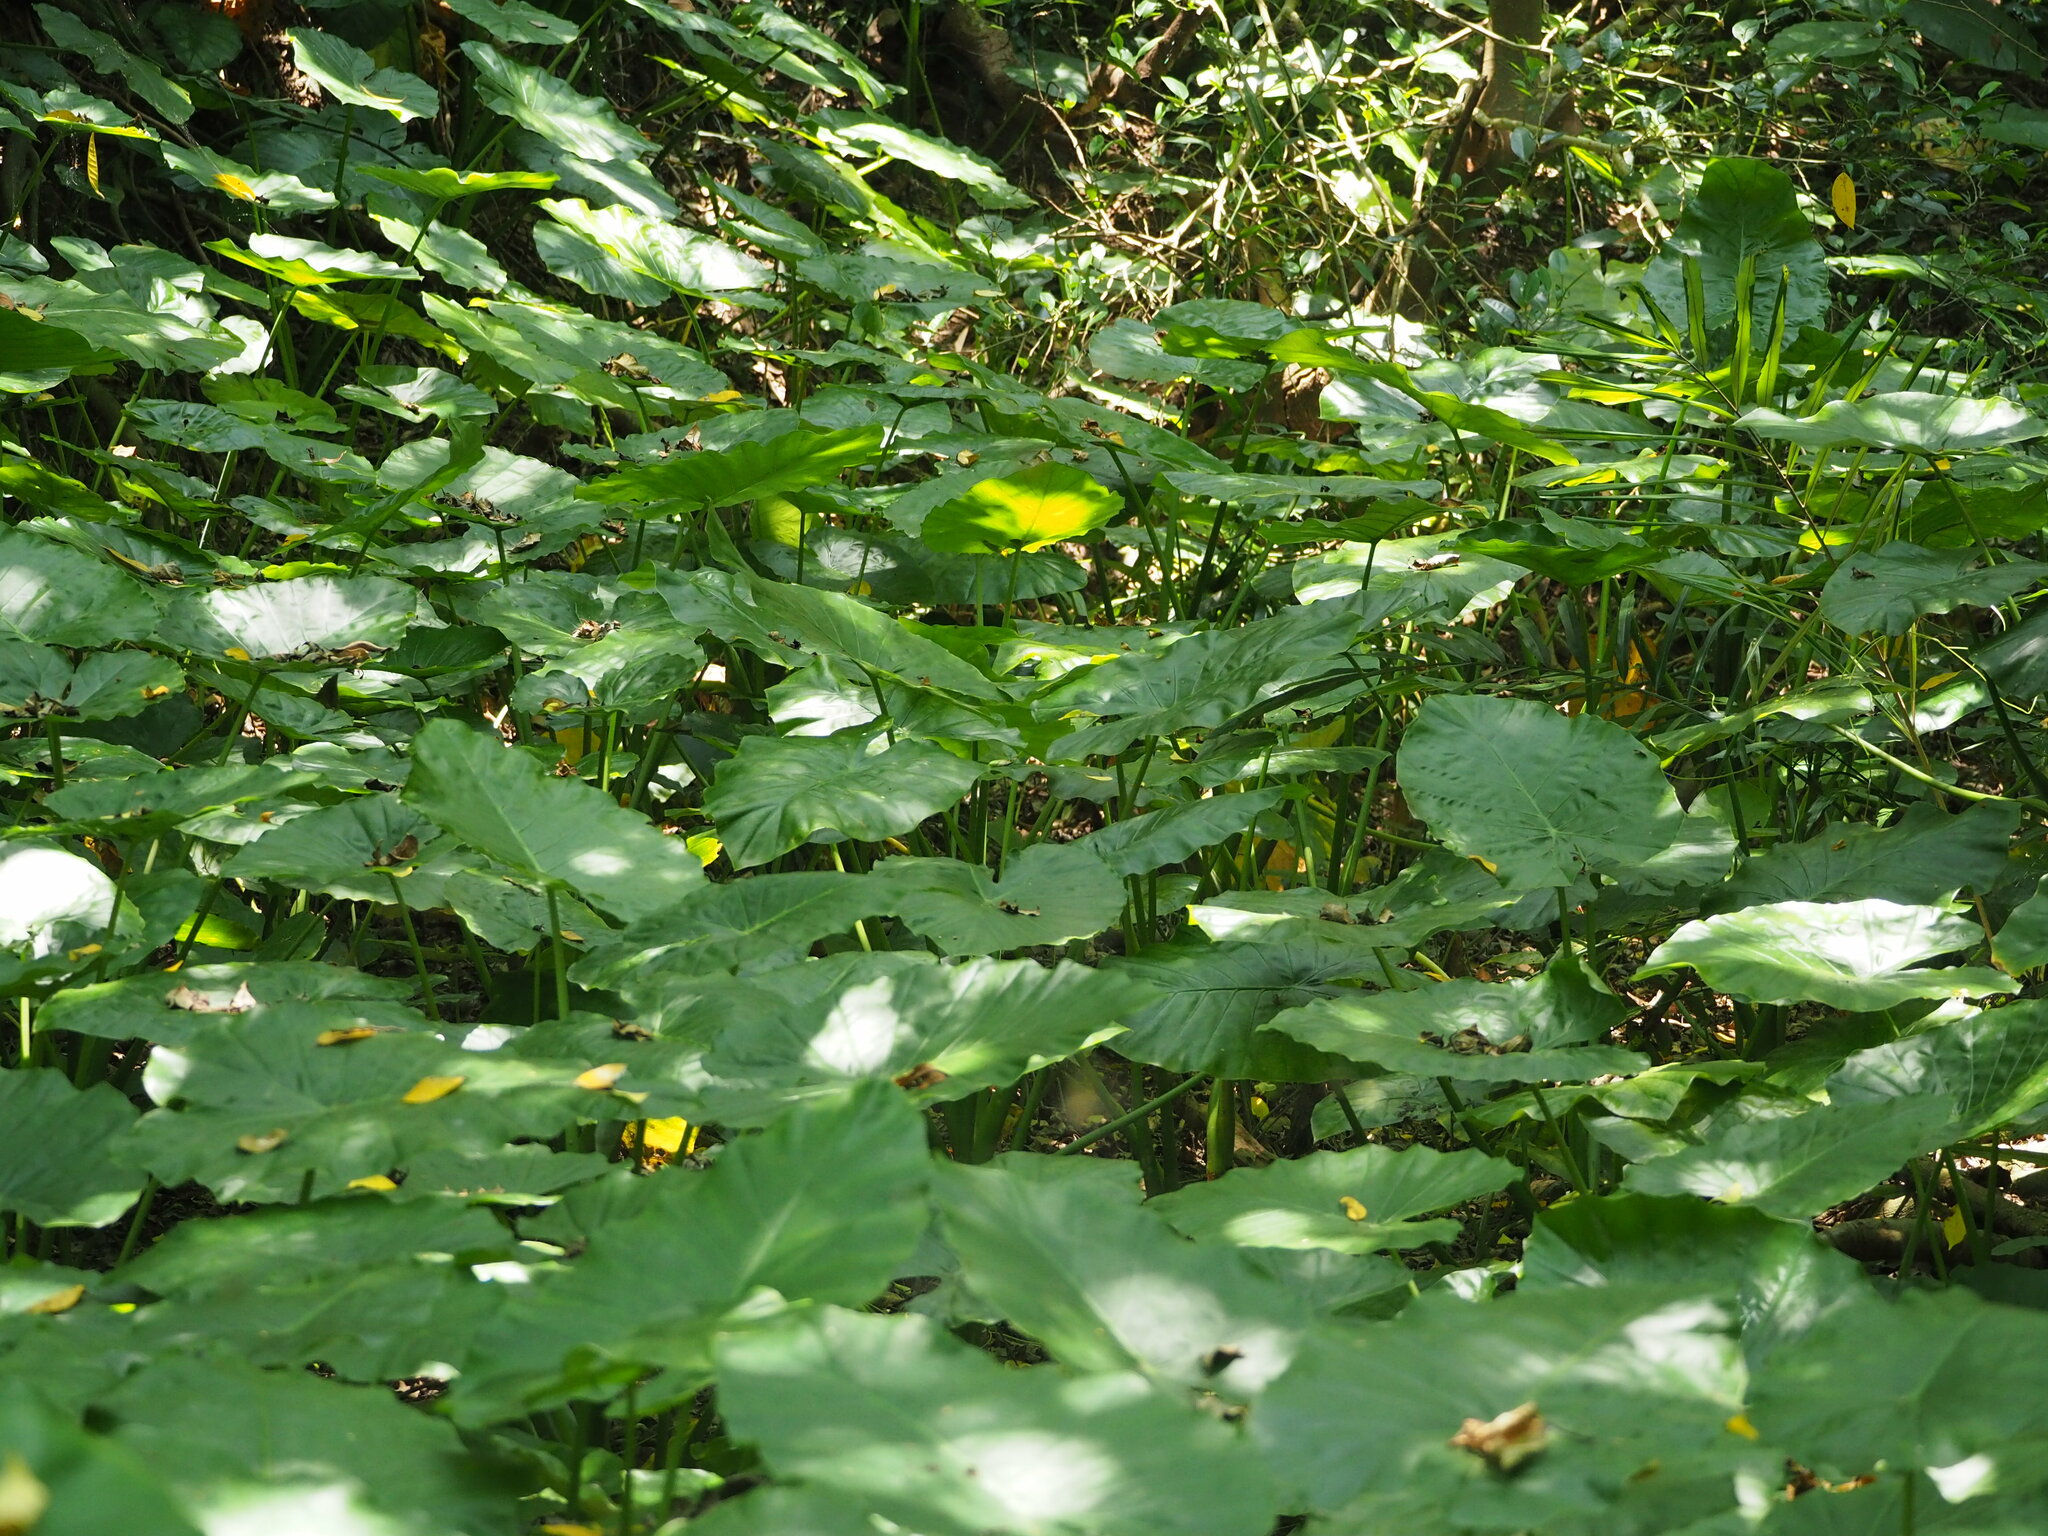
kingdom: Plantae
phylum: Tracheophyta
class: Liliopsida
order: Alismatales
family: Araceae
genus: Alocasia
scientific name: Alocasia odora
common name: Asian taro
